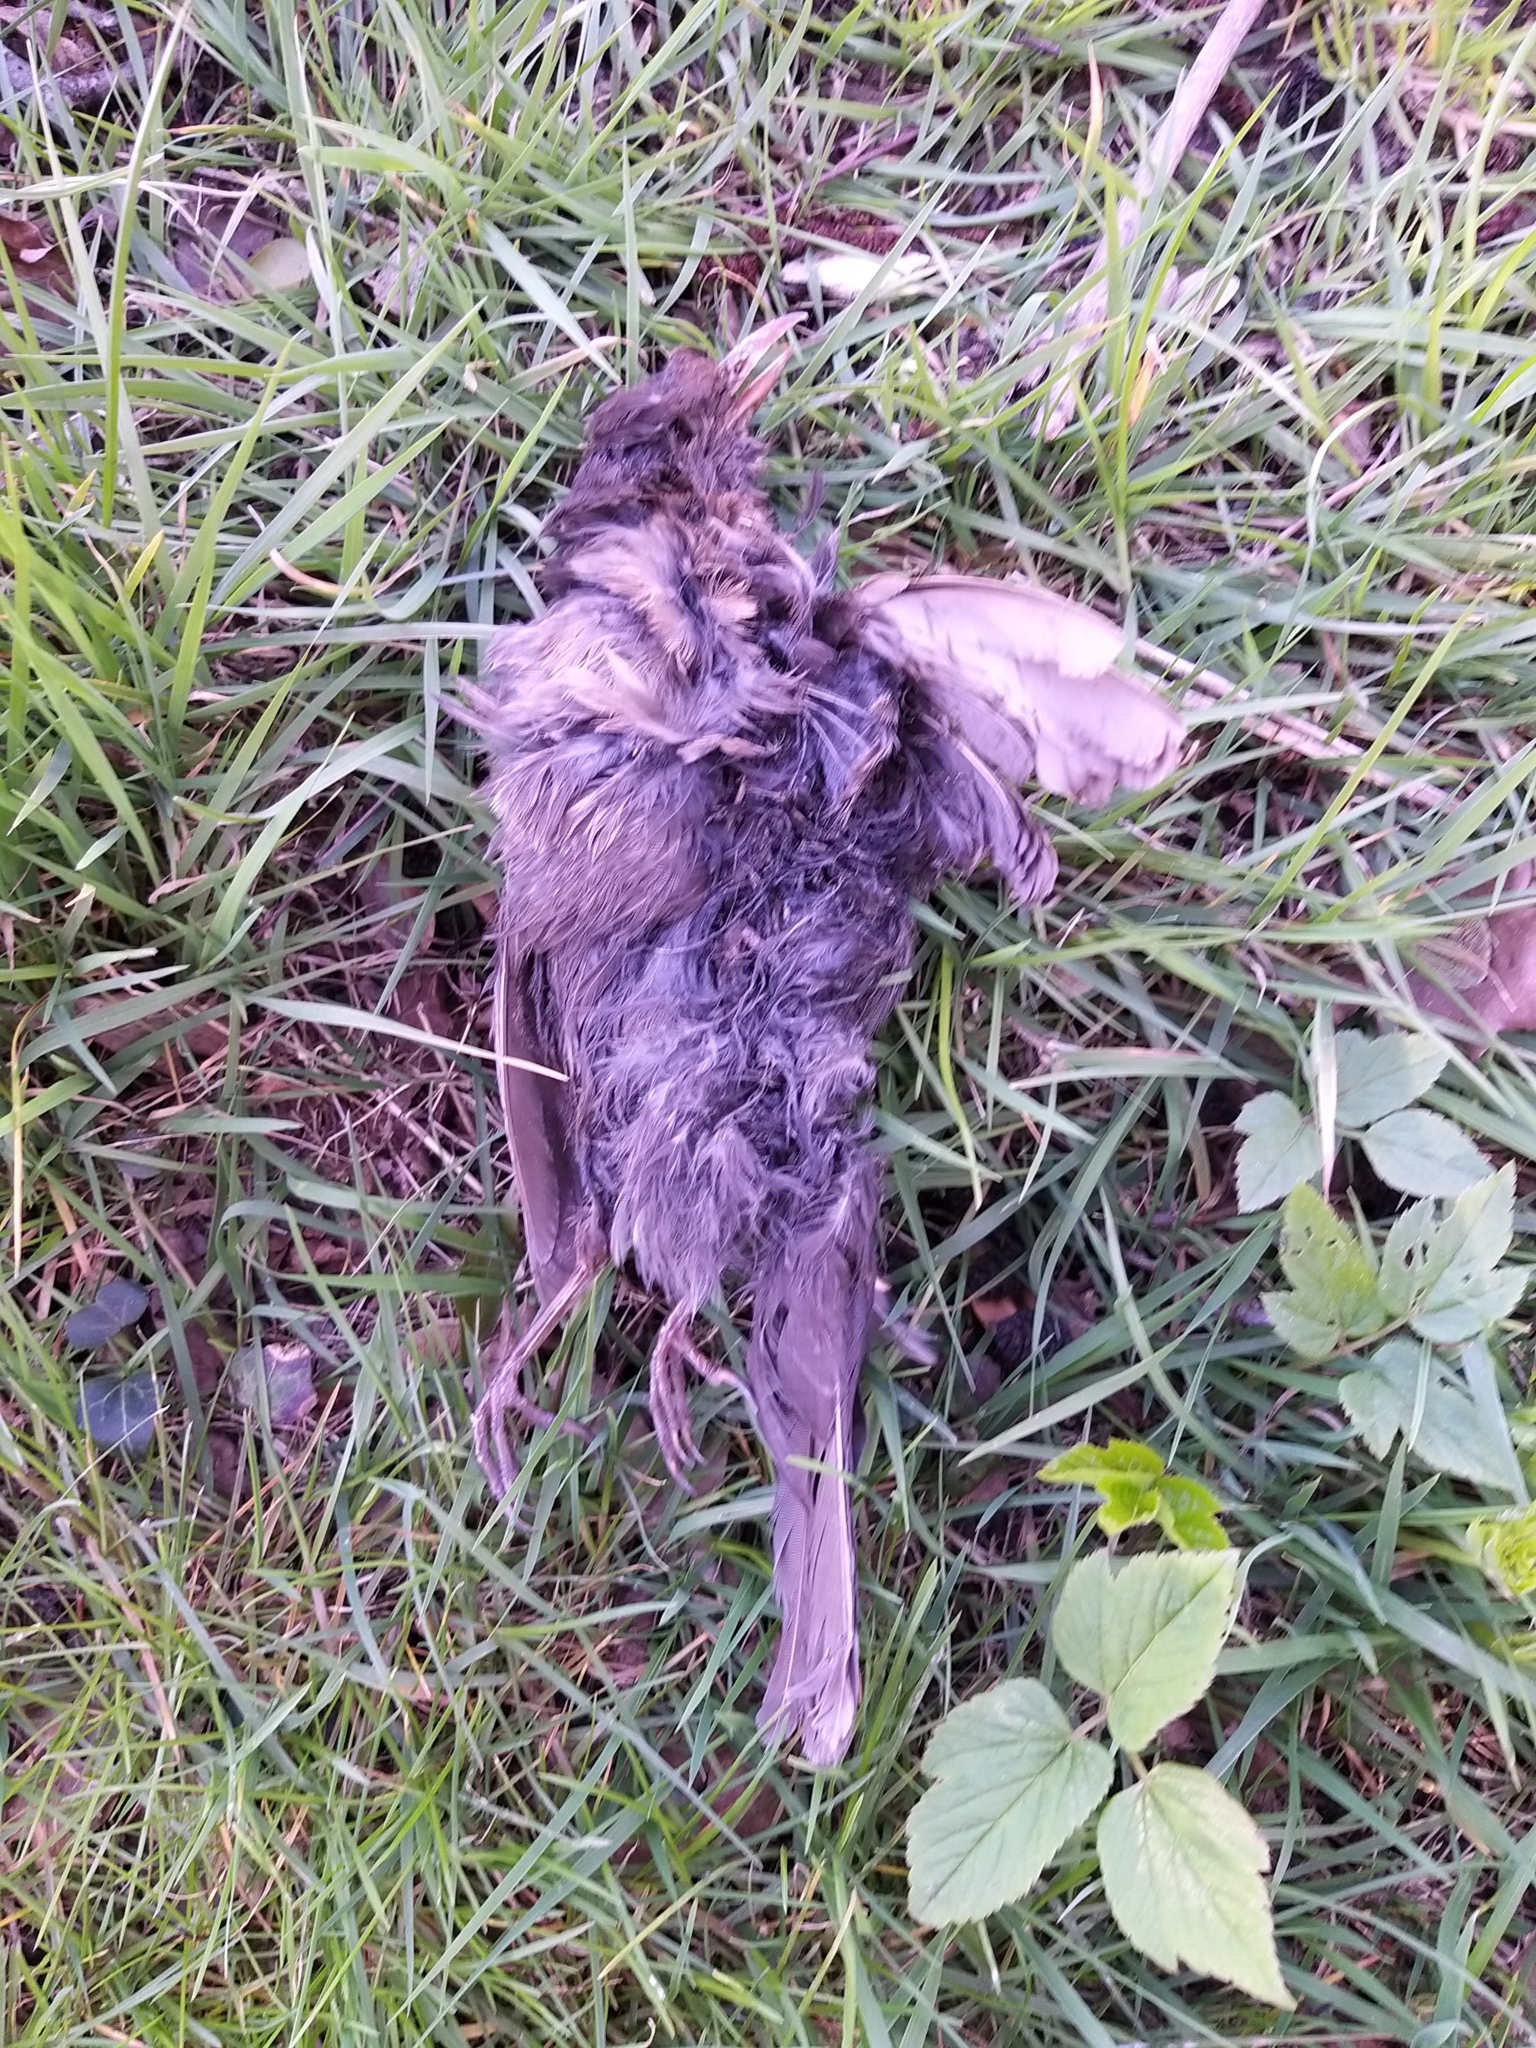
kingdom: Animalia
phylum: Chordata
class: Aves
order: Passeriformes
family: Turdidae
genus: Turdus
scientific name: Turdus merula
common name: Common blackbird
